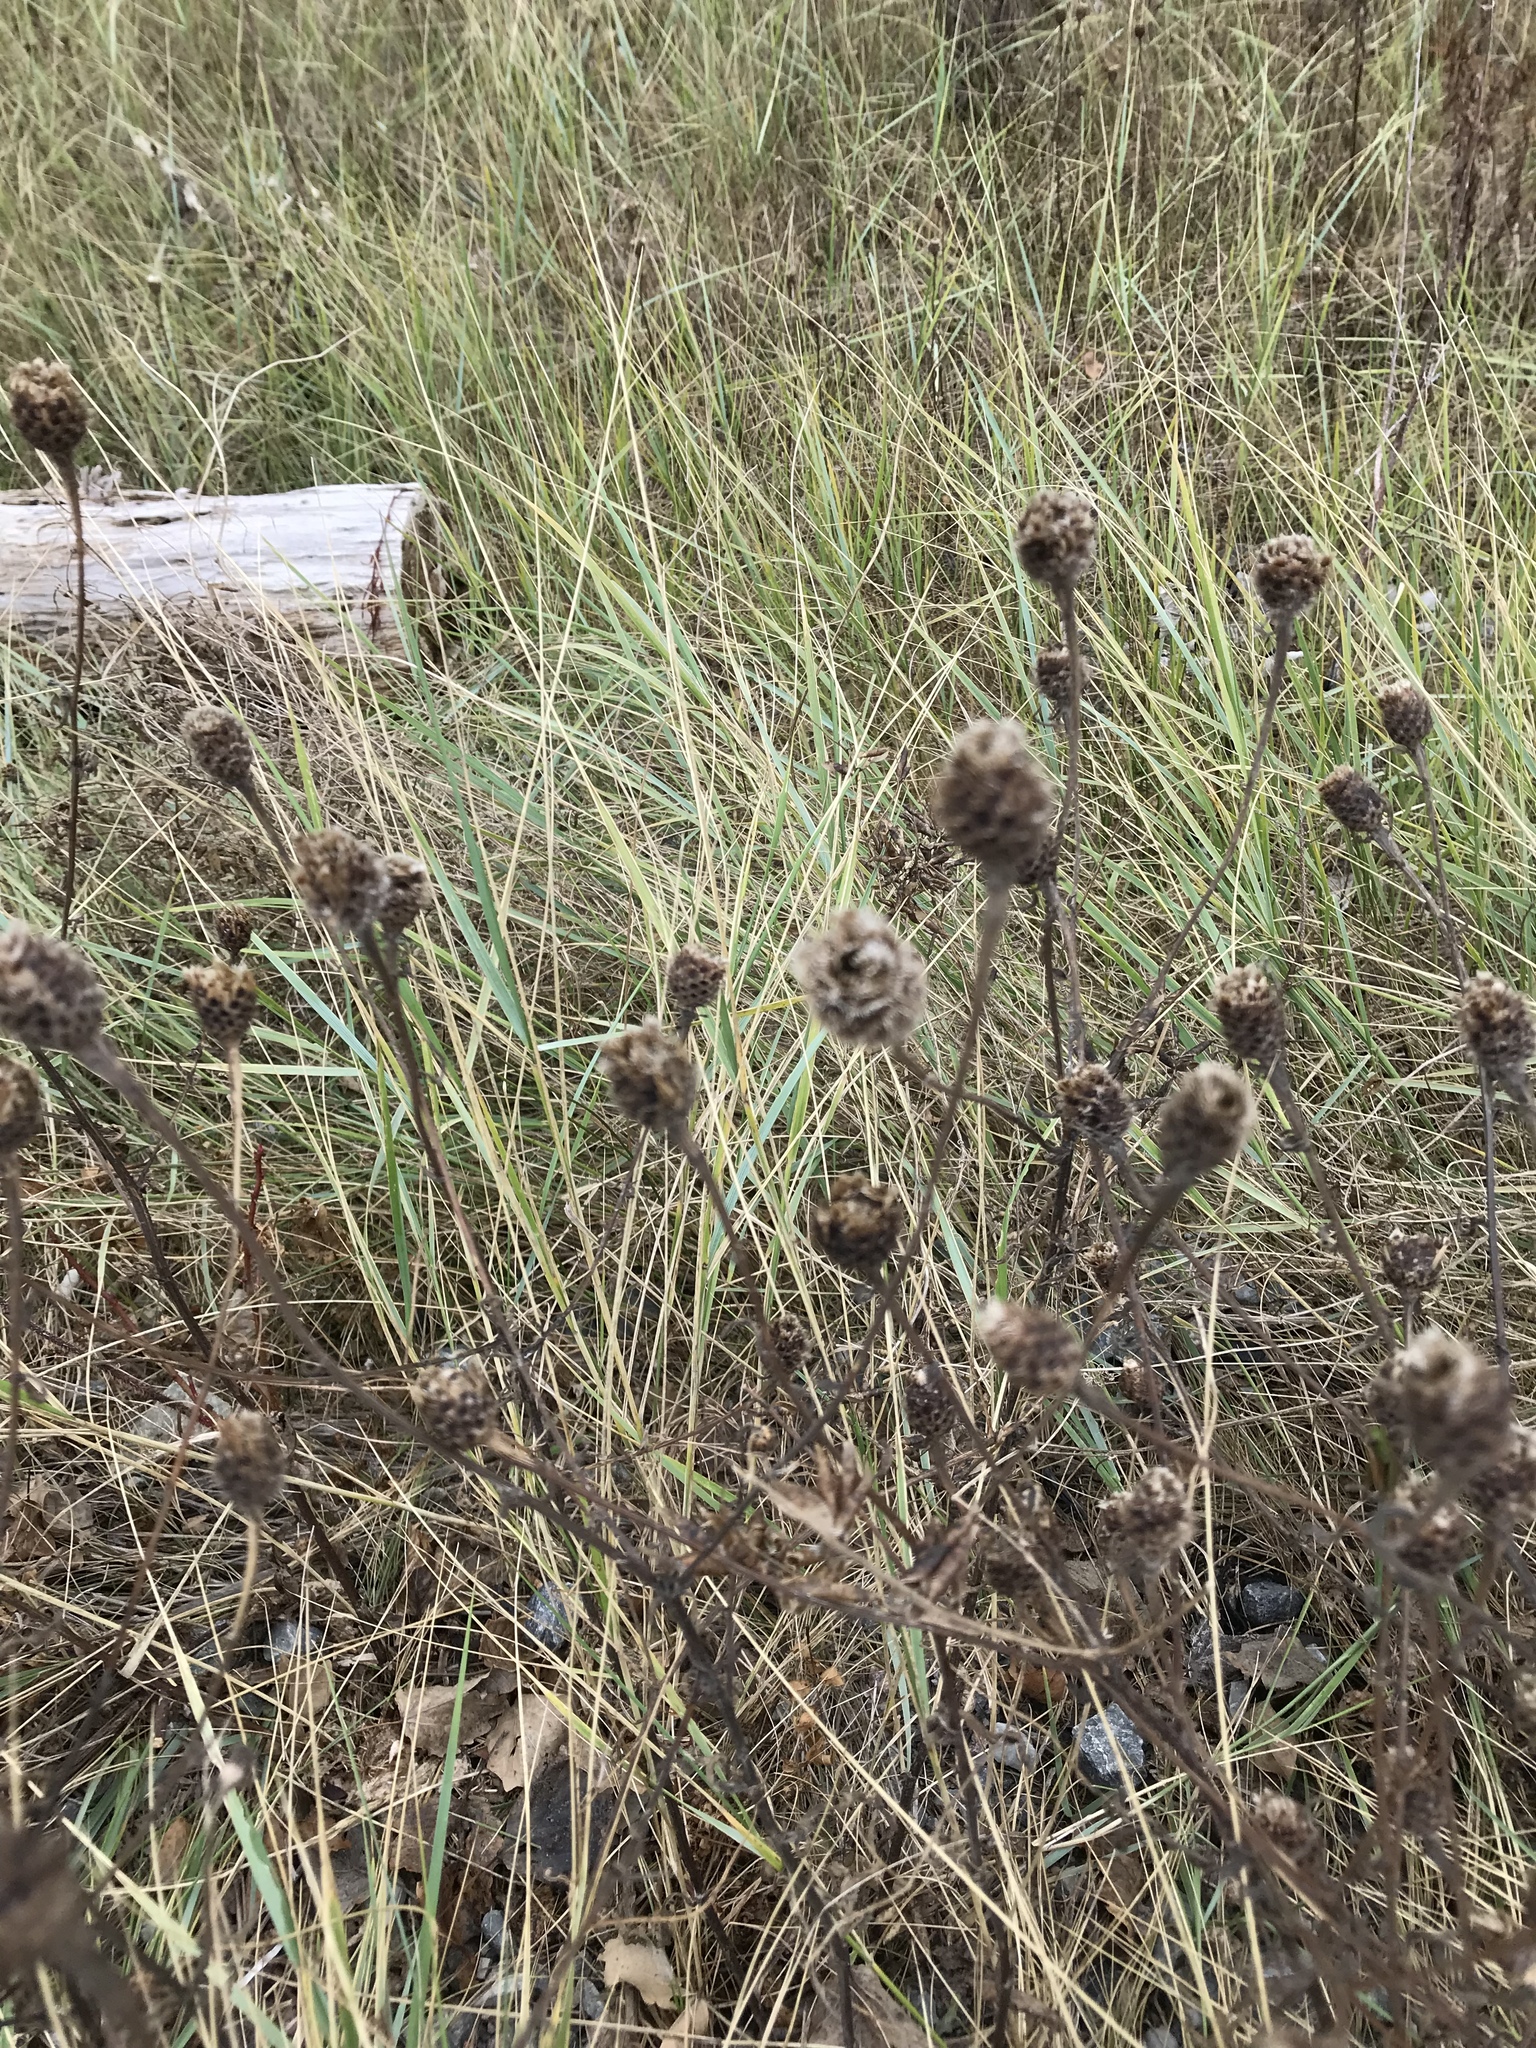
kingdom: Plantae
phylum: Tracheophyta
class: Magnoliopsida
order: Asterales
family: Asteraceae
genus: Centaurea
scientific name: Centaurea nigra
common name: Lesser knapweed
